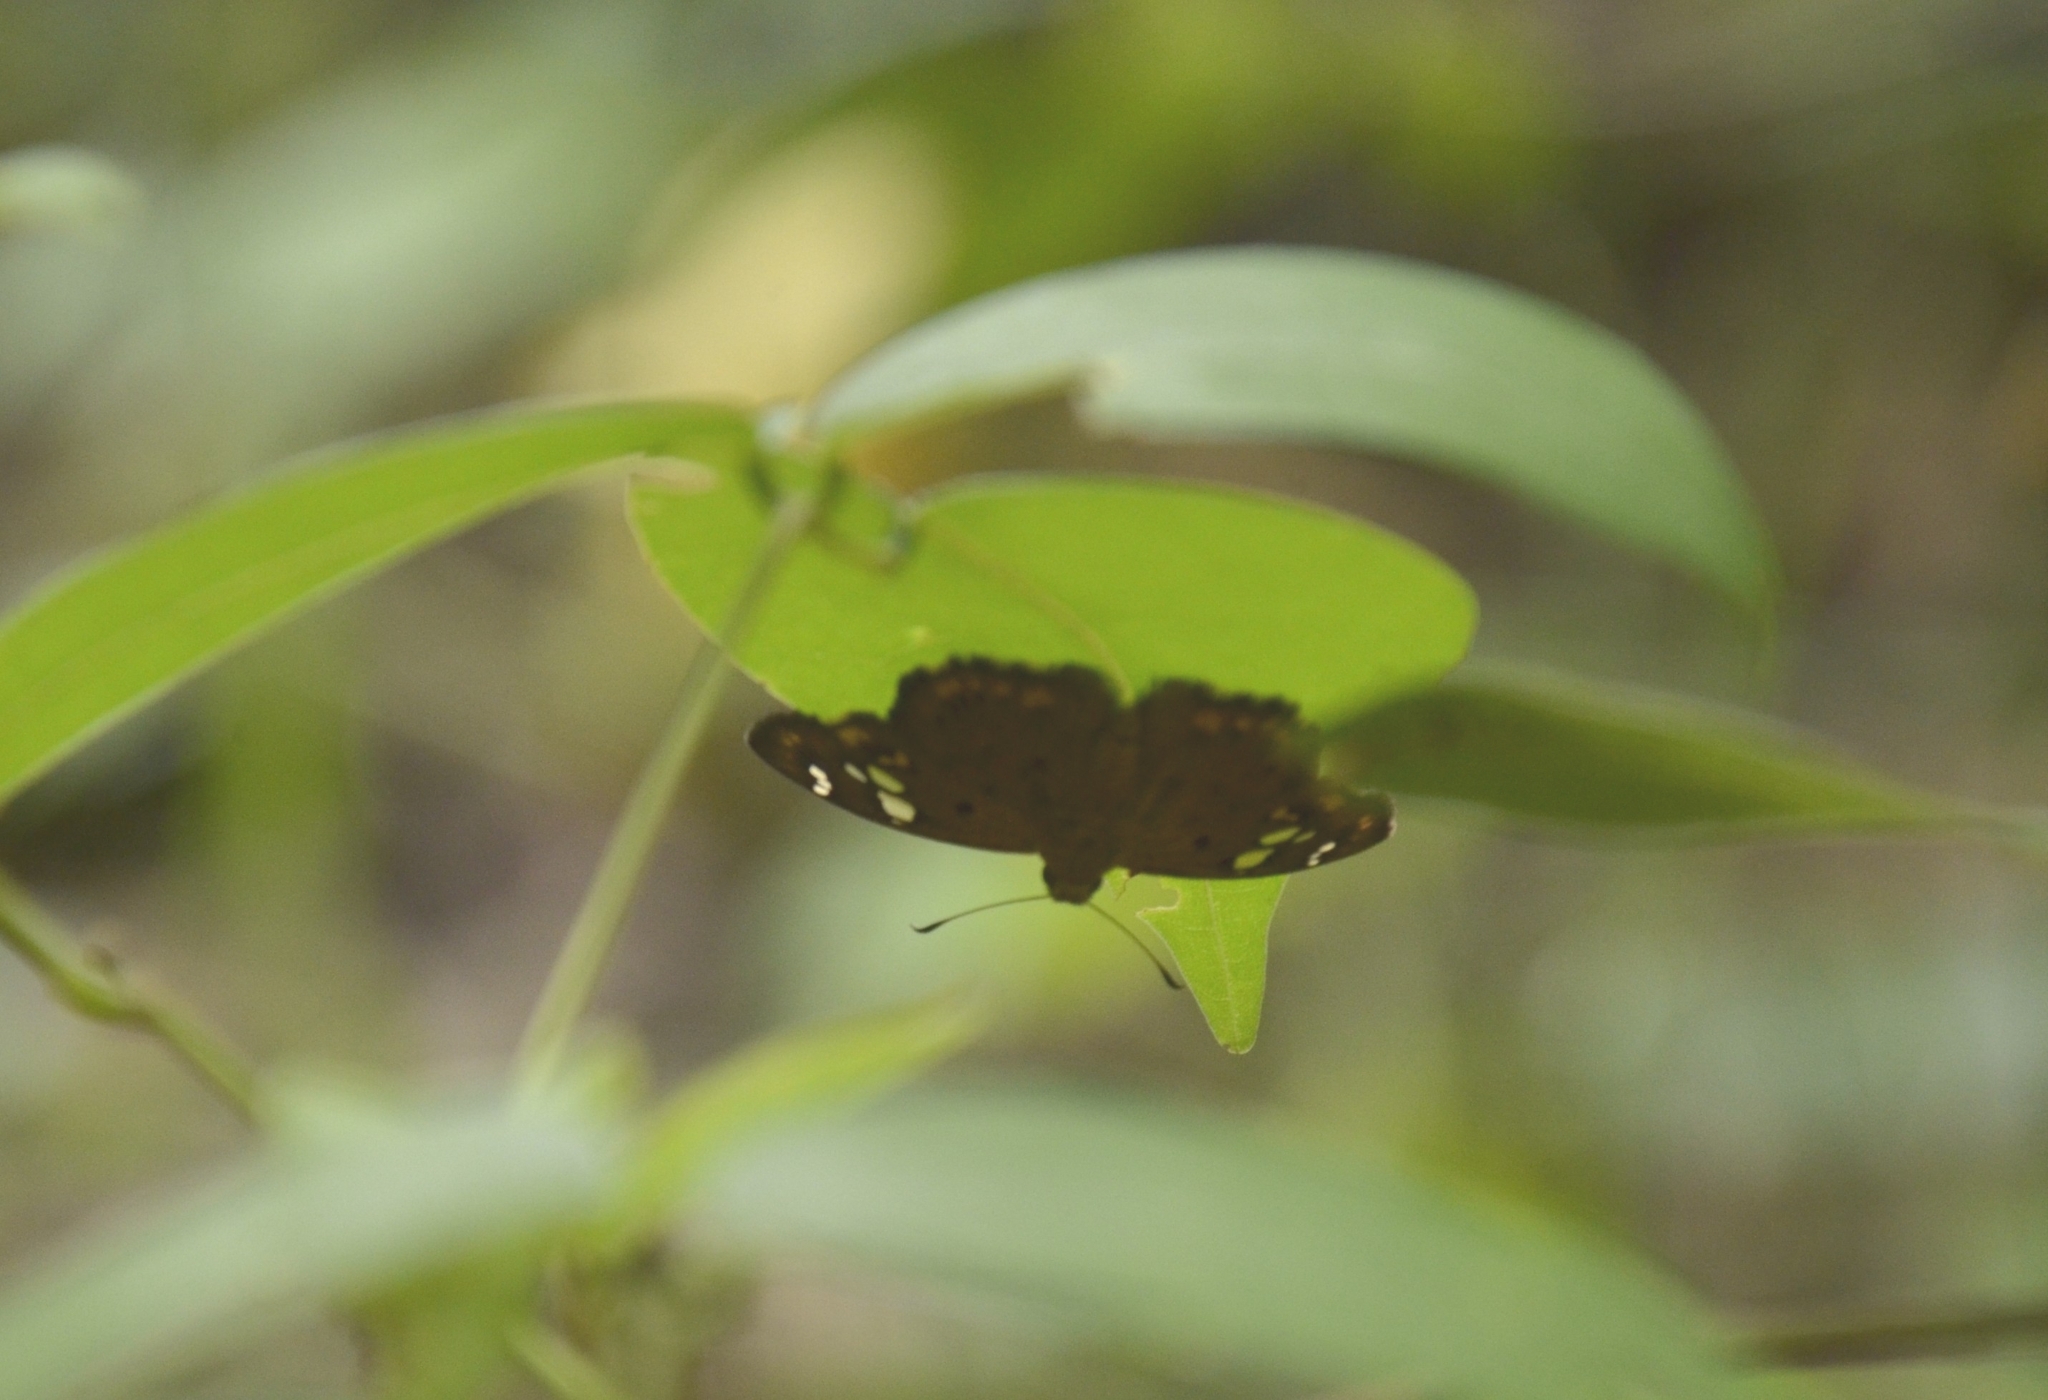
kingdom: Animalia
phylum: Arthropoda
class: Insecta
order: Lepidoptera
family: Hesperiidae
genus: Coladenia
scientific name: Coladenia
